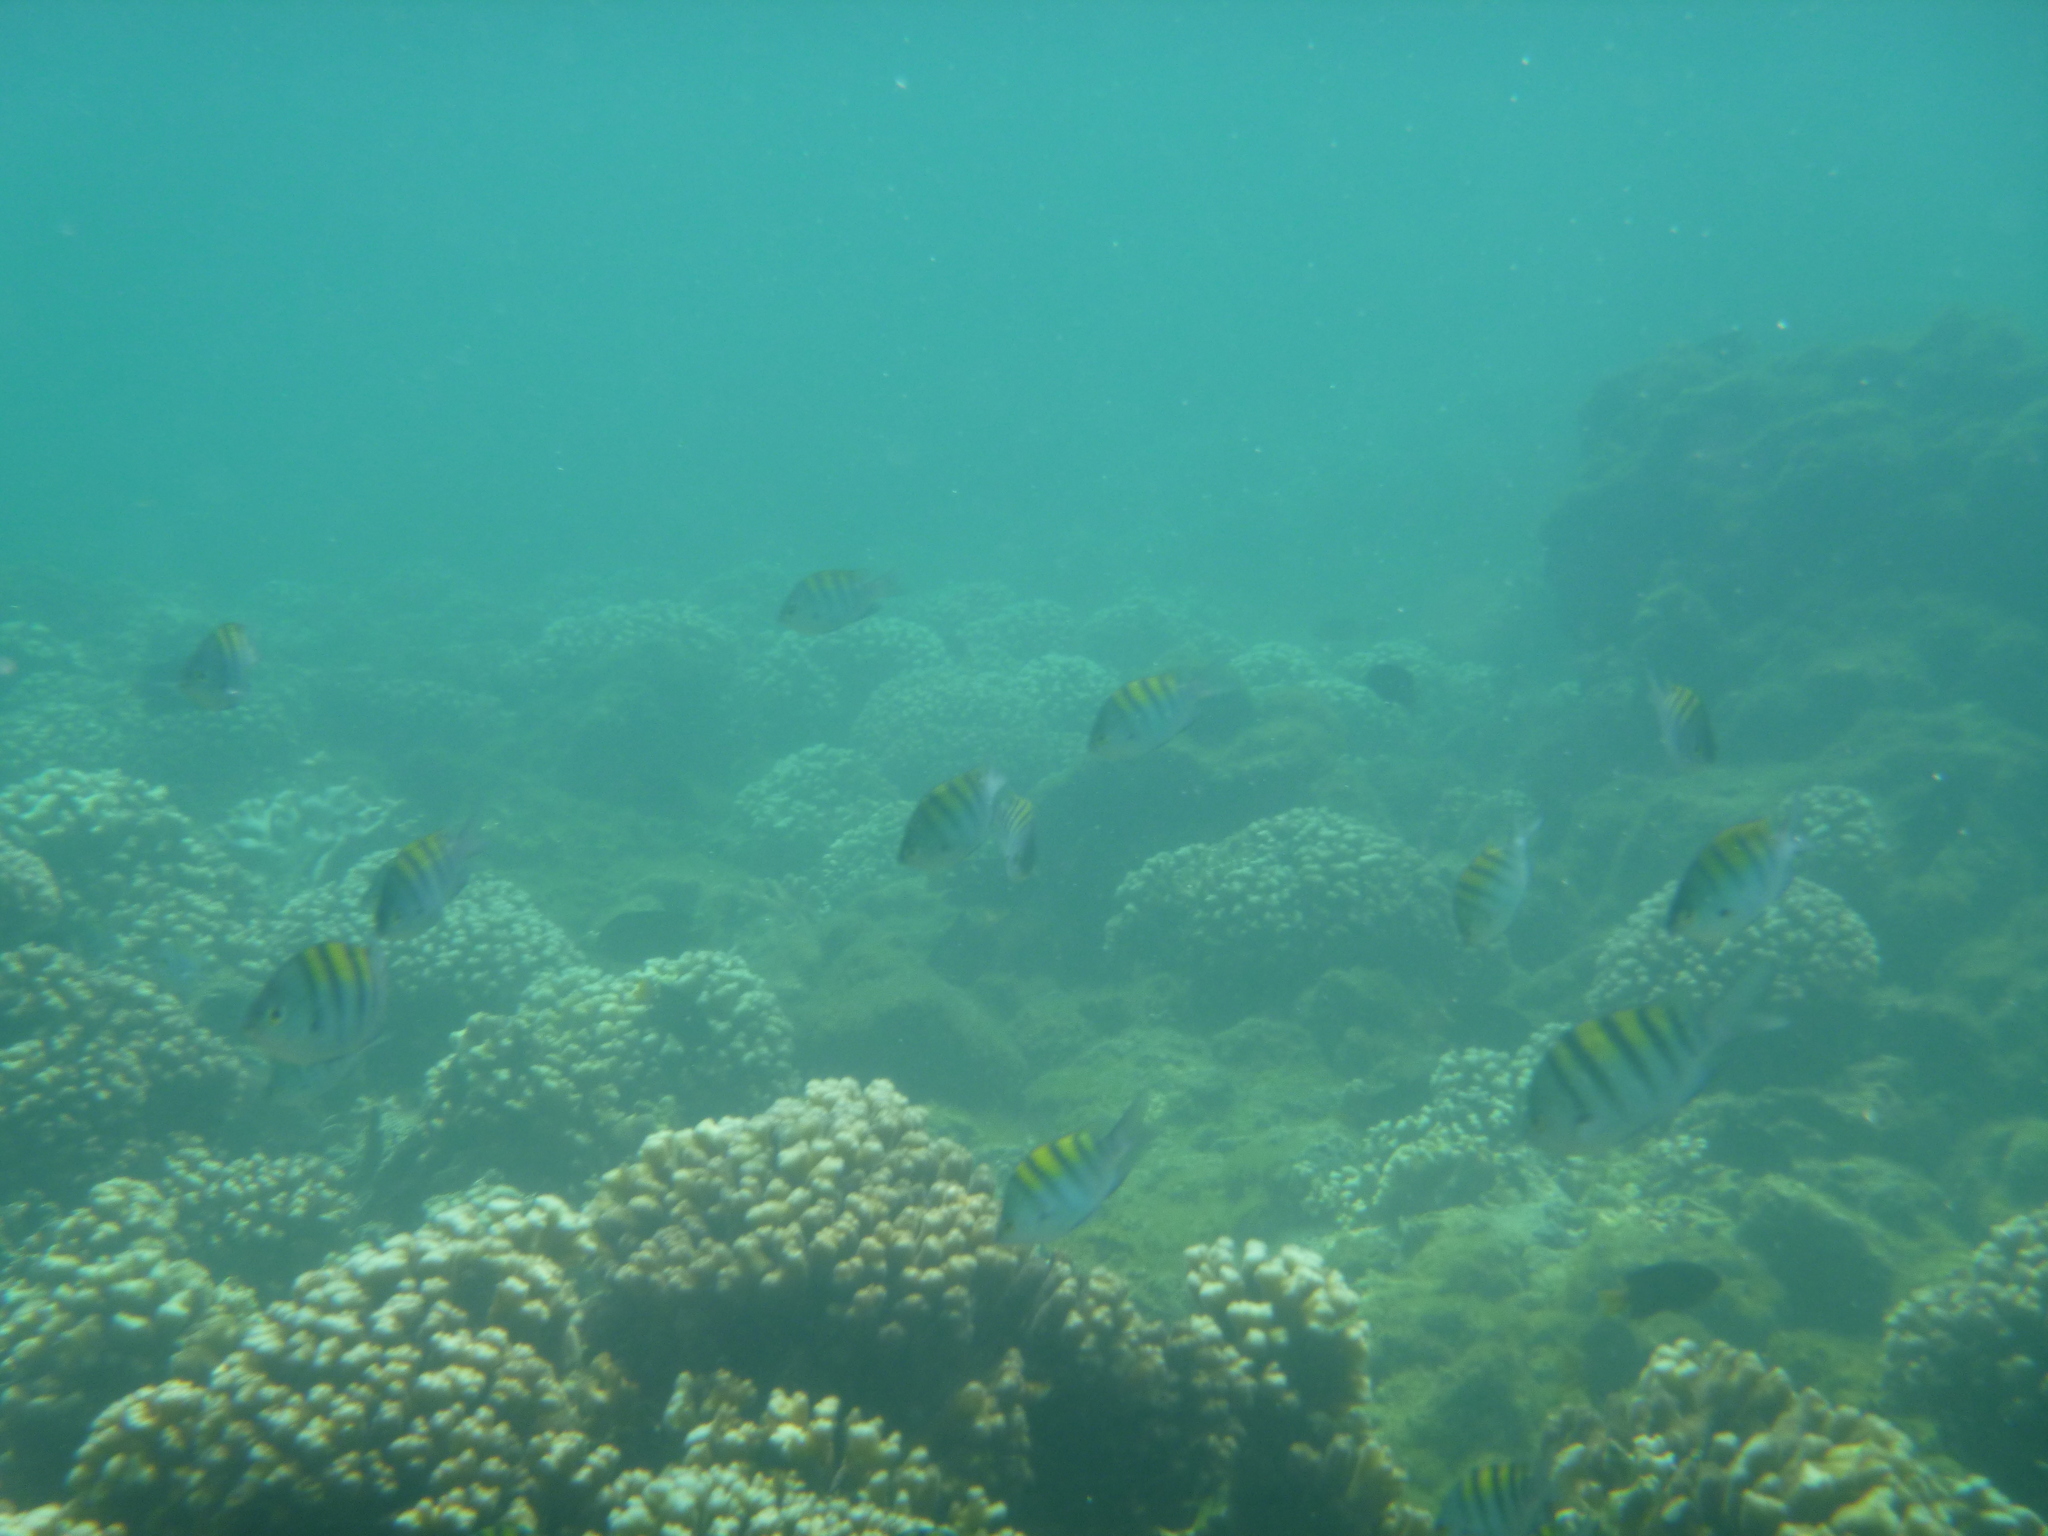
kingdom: Animalia
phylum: Chordata
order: Perciformes
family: Pomacentridae
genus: Abudefduf
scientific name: Abudefduf troschelii
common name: Panamic sergeant major
